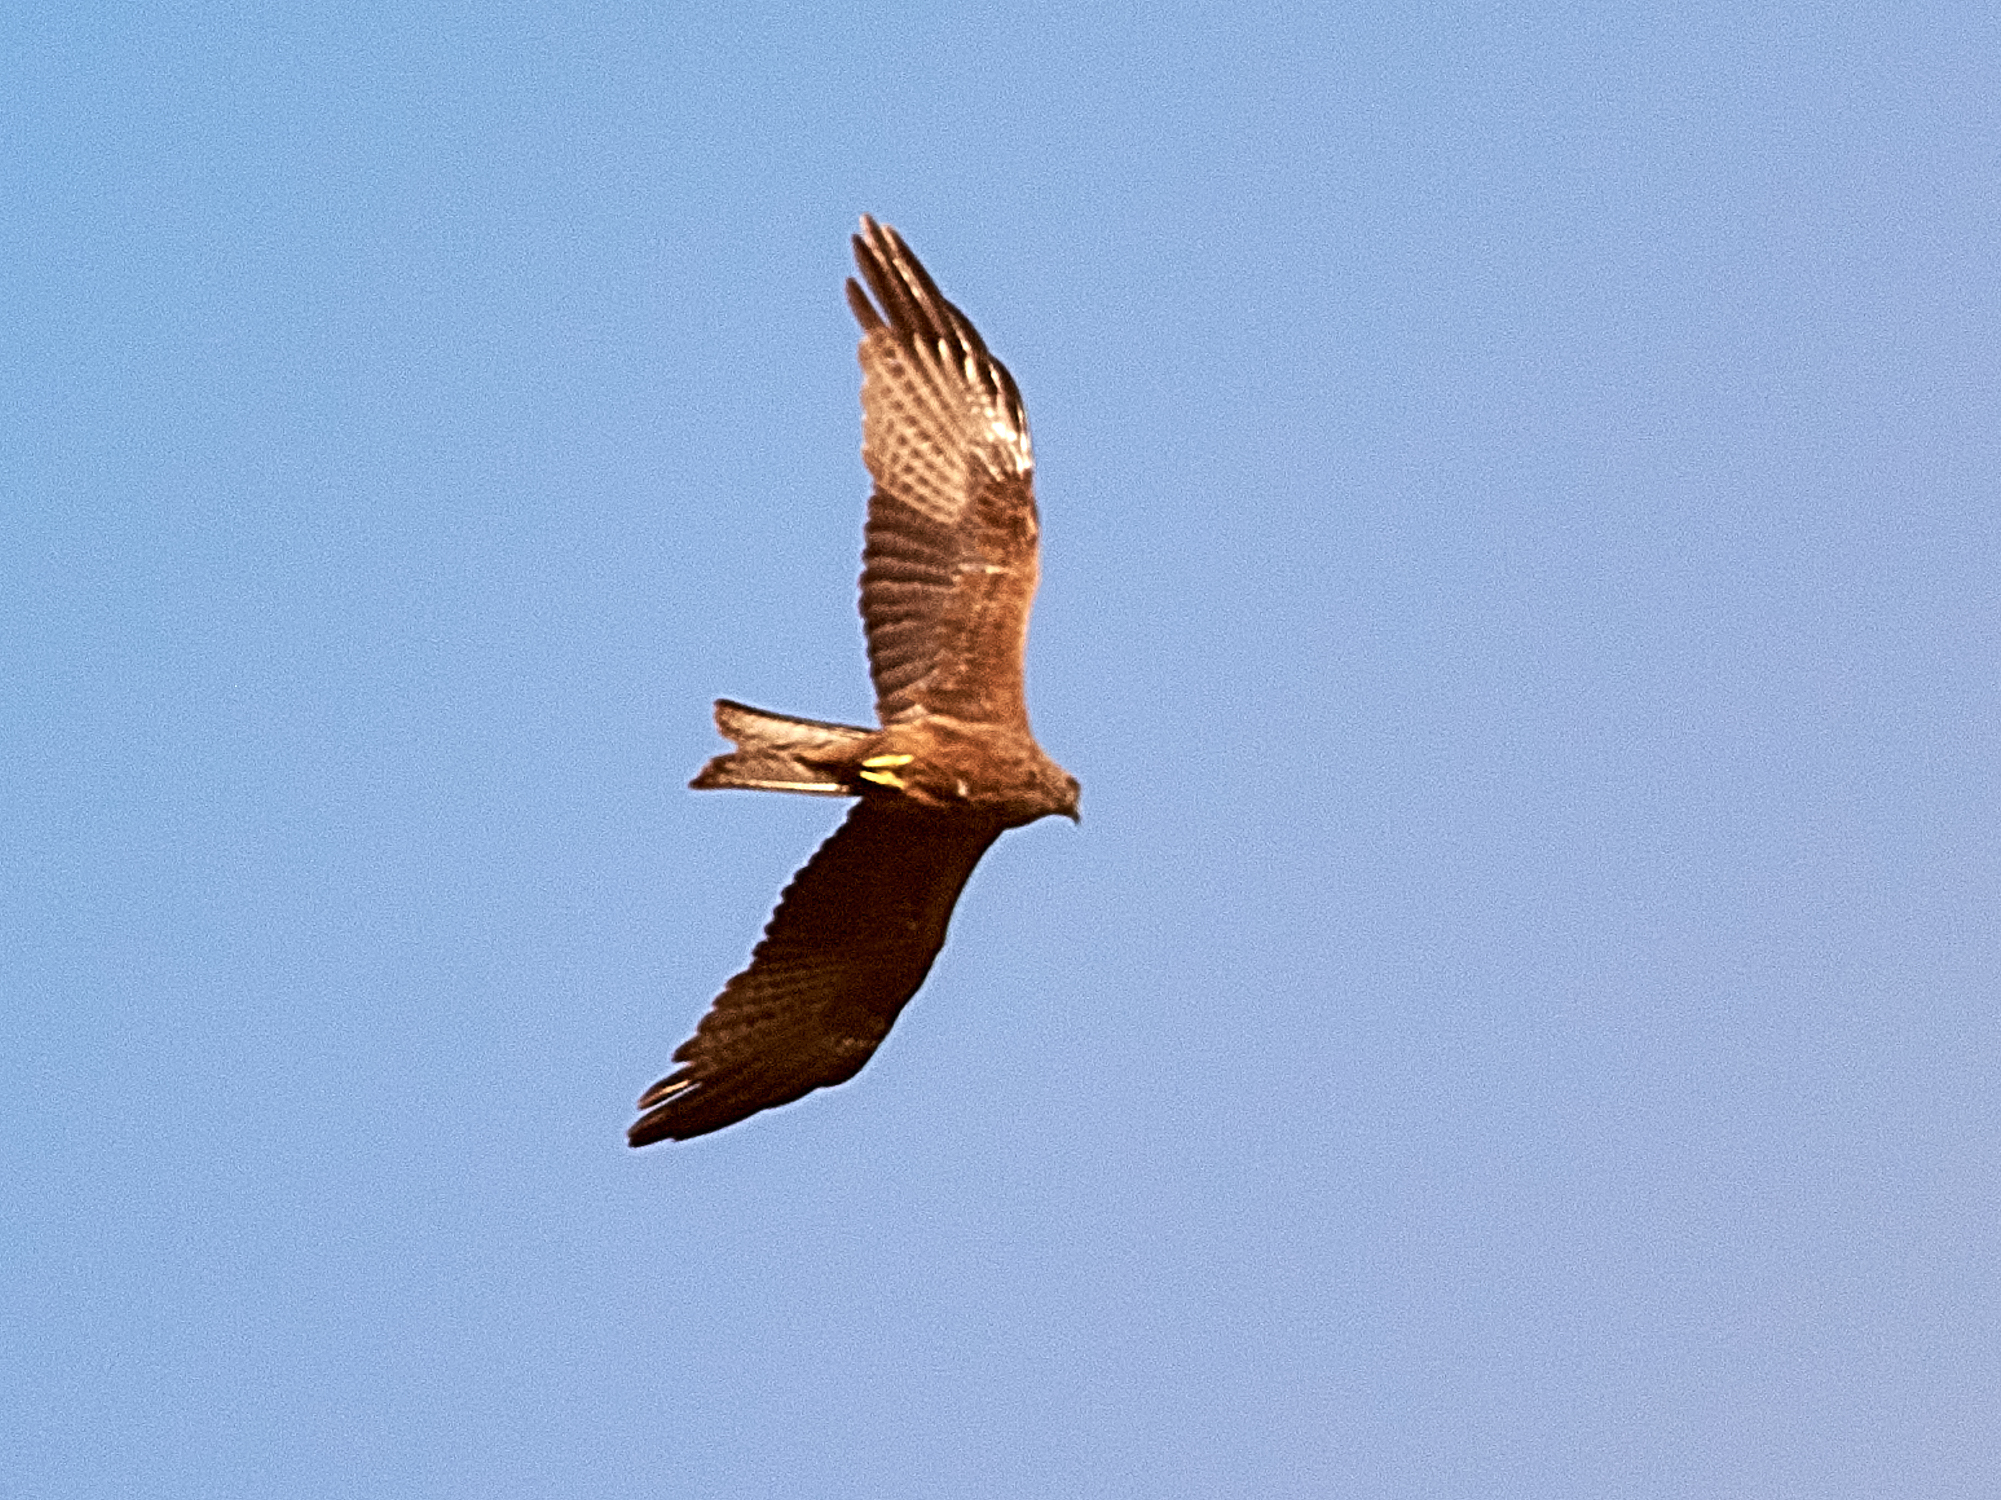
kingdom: Animalia
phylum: Chordata
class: Aves
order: Accipitriformes
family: Accipitridae
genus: Milvus
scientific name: Milvus migrans
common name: Black kite
